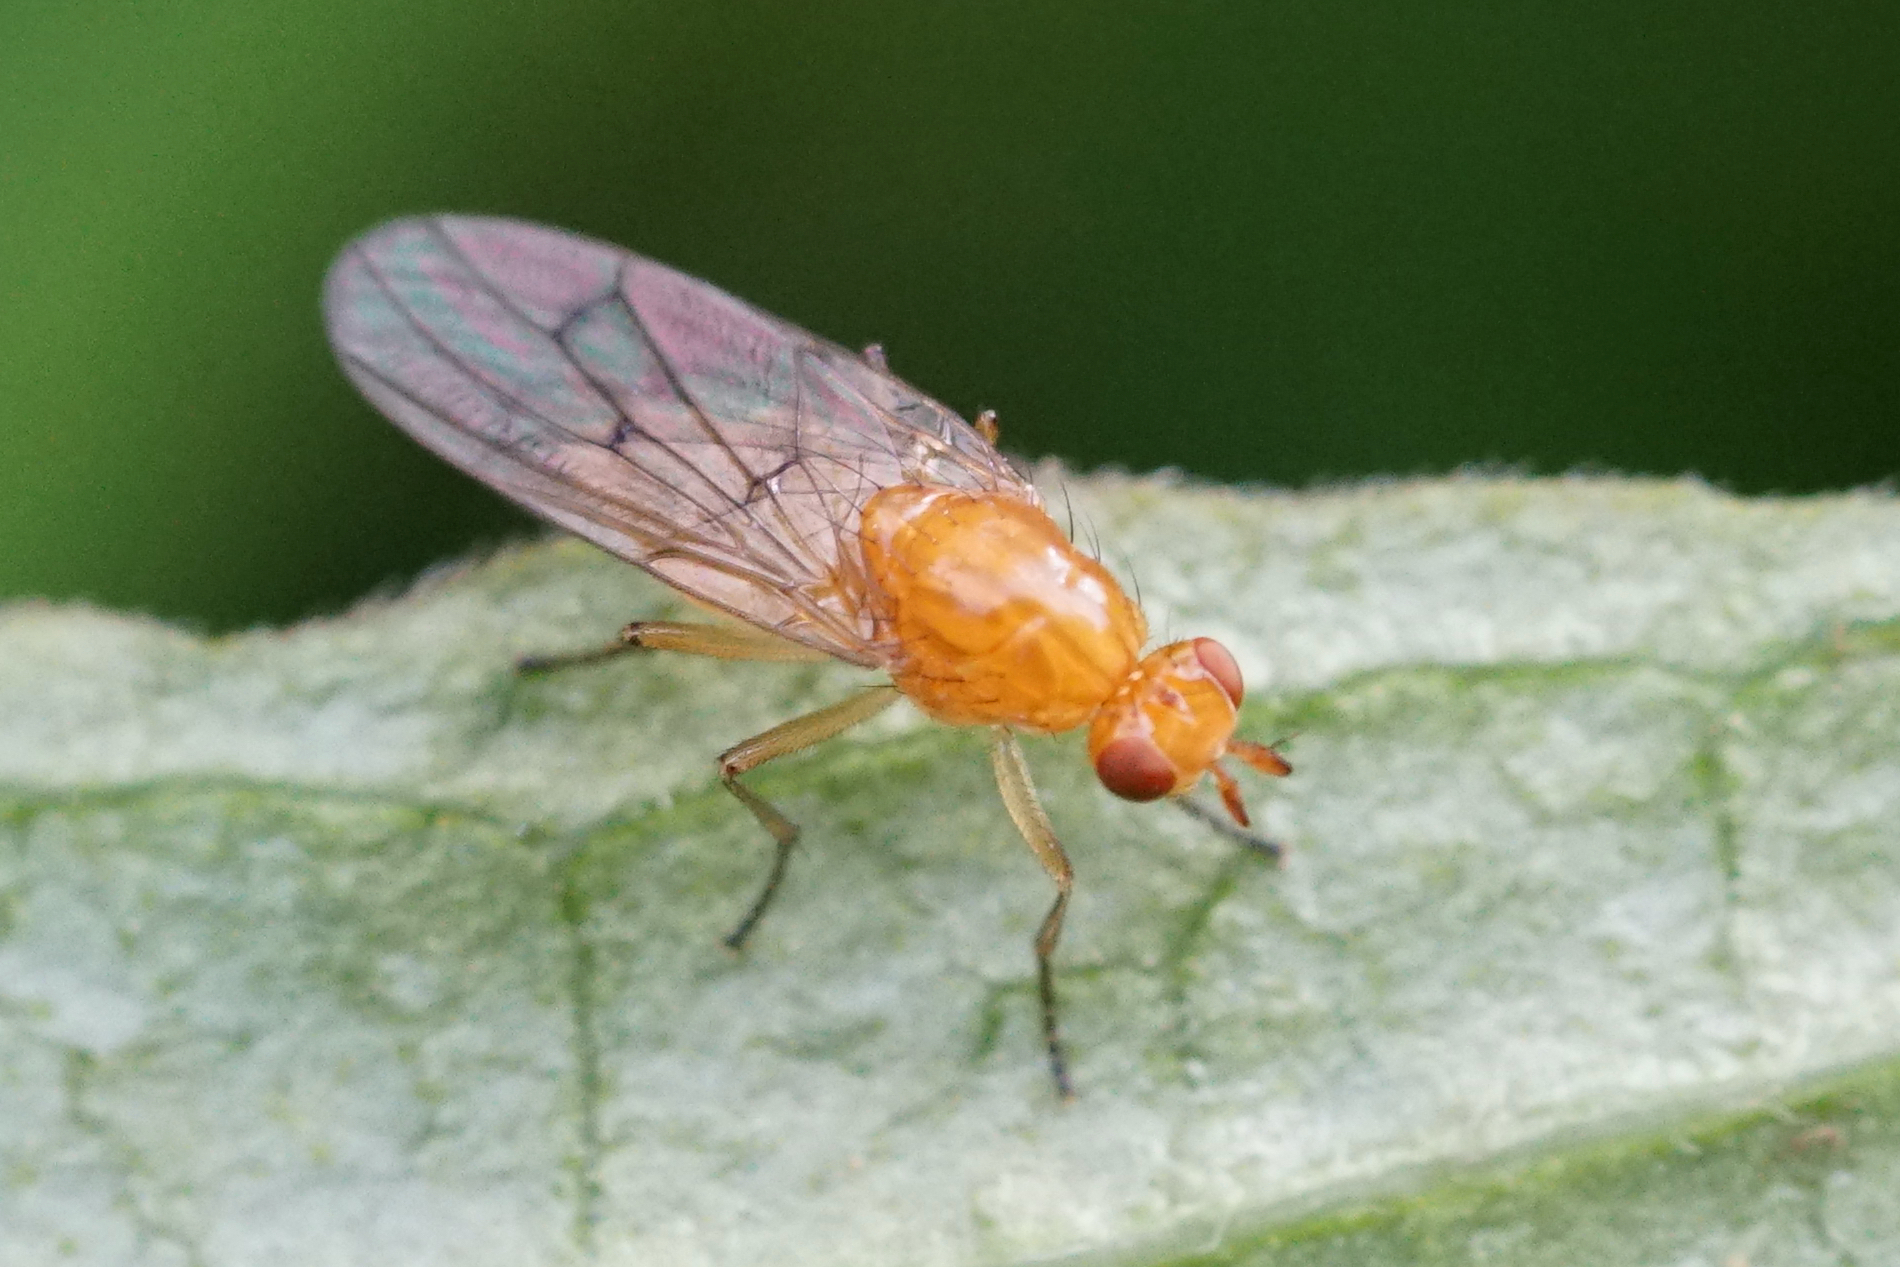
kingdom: Animalia
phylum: Arthropoda
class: Insecta
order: Diptera
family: Dryomyzidae
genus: Dryope
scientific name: Dryope decrepita
